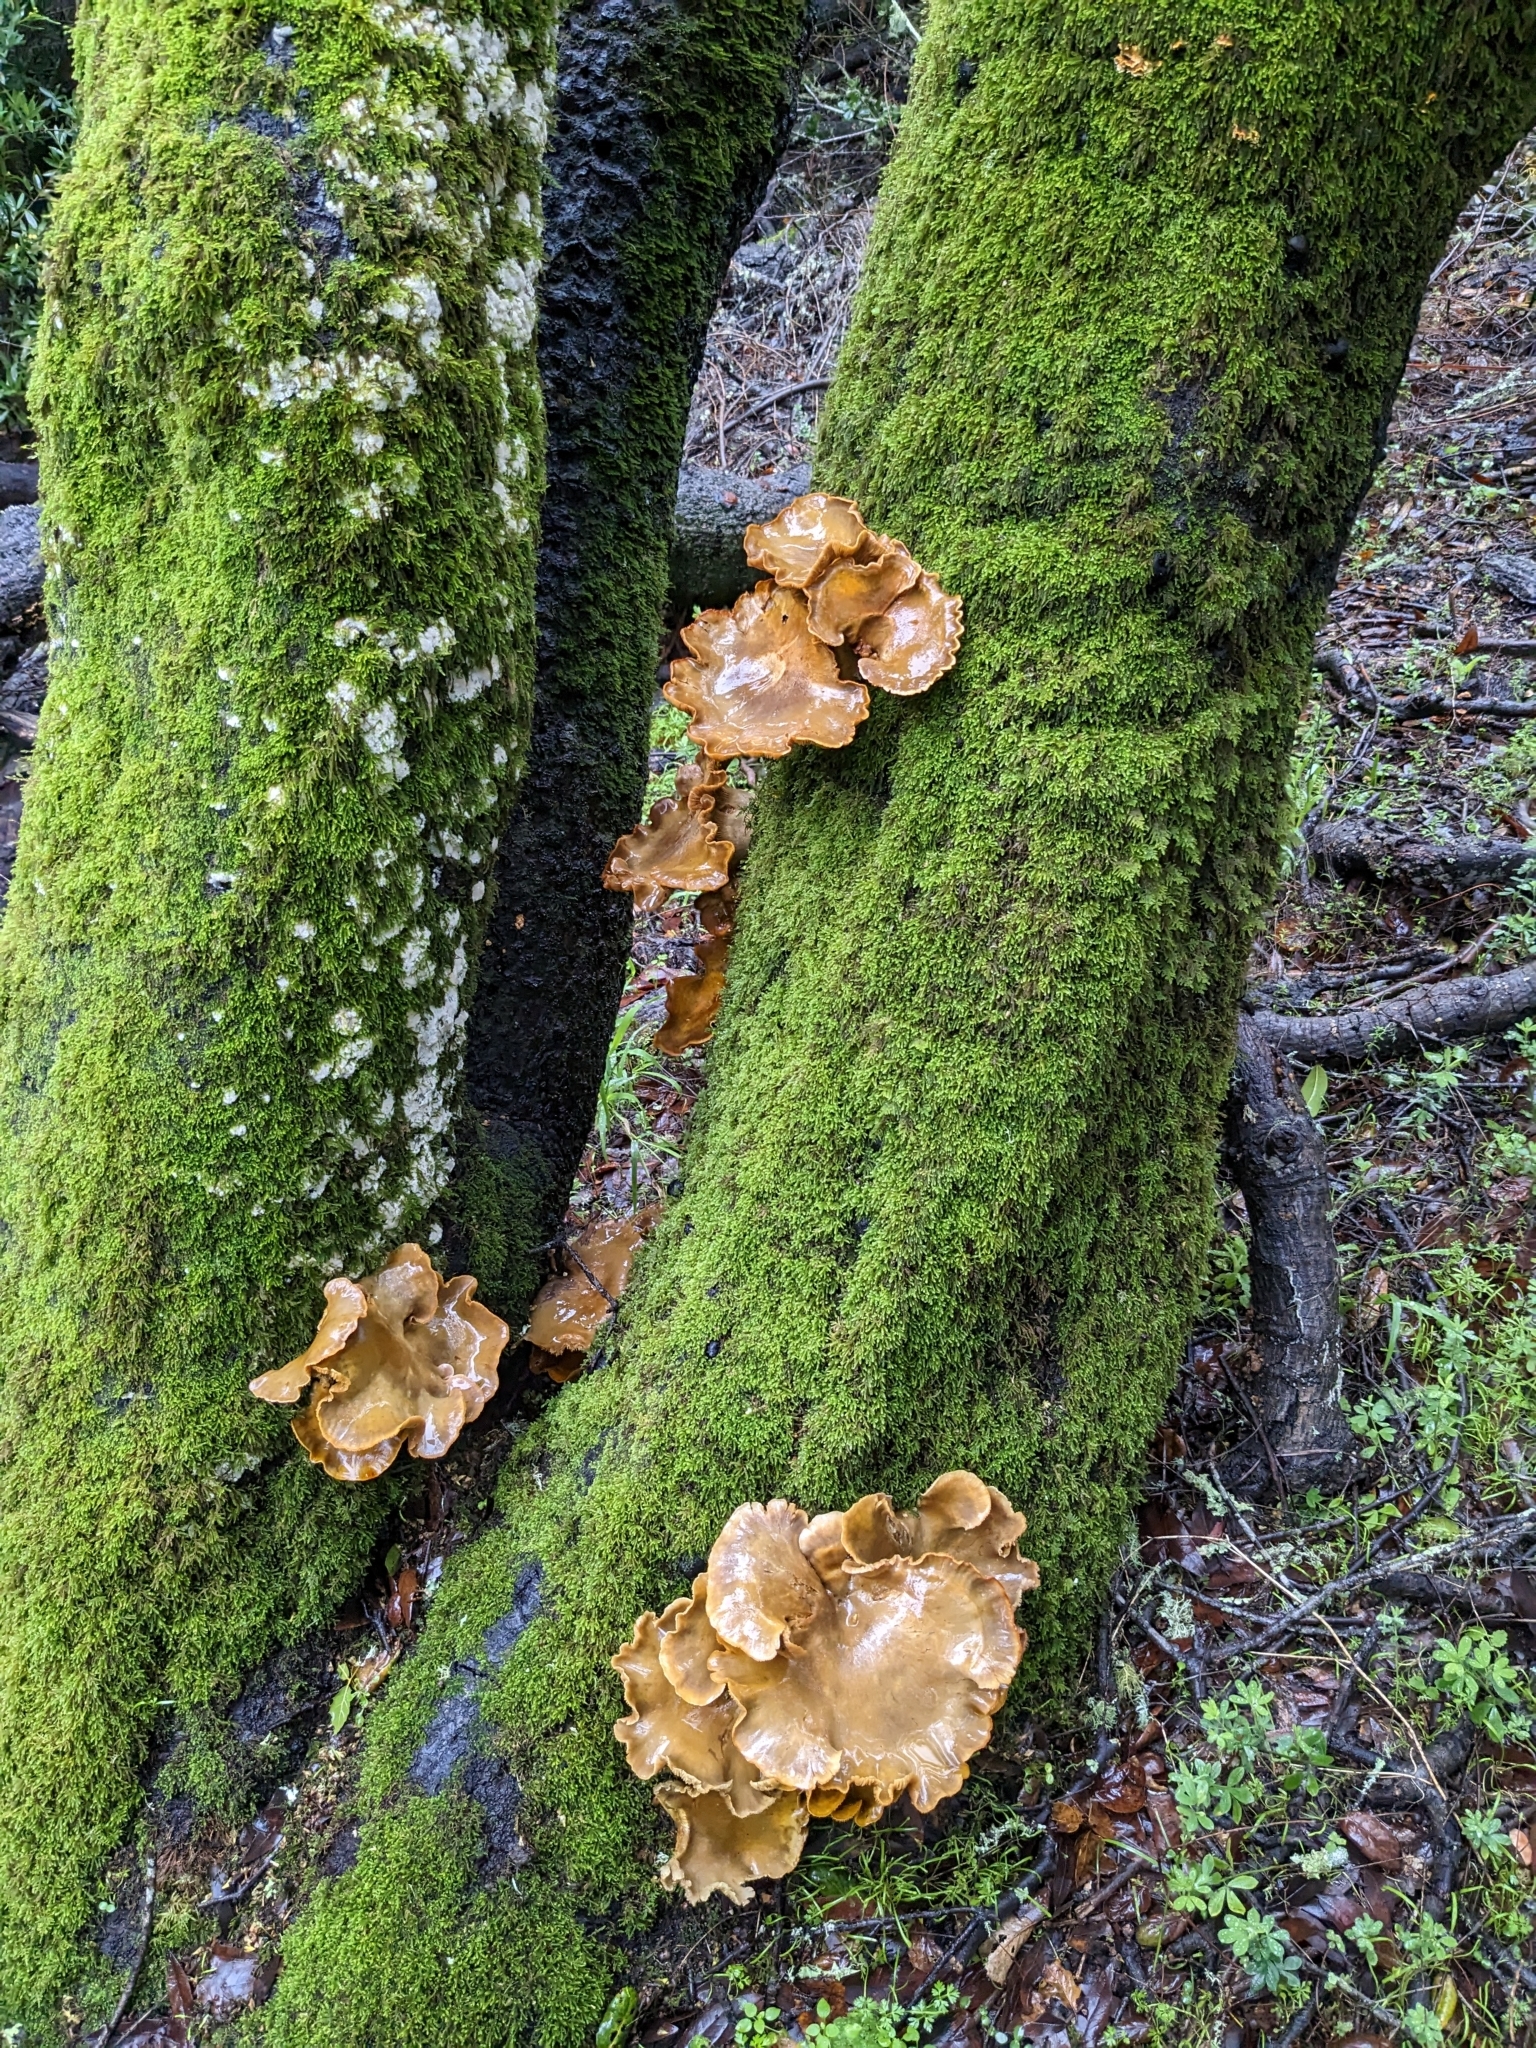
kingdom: Fungi
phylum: Basidiomycota
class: Agaricomycetes
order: Agaricales
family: Omphalotaceae
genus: Omphalotus
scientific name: Omphalotus olivascens
